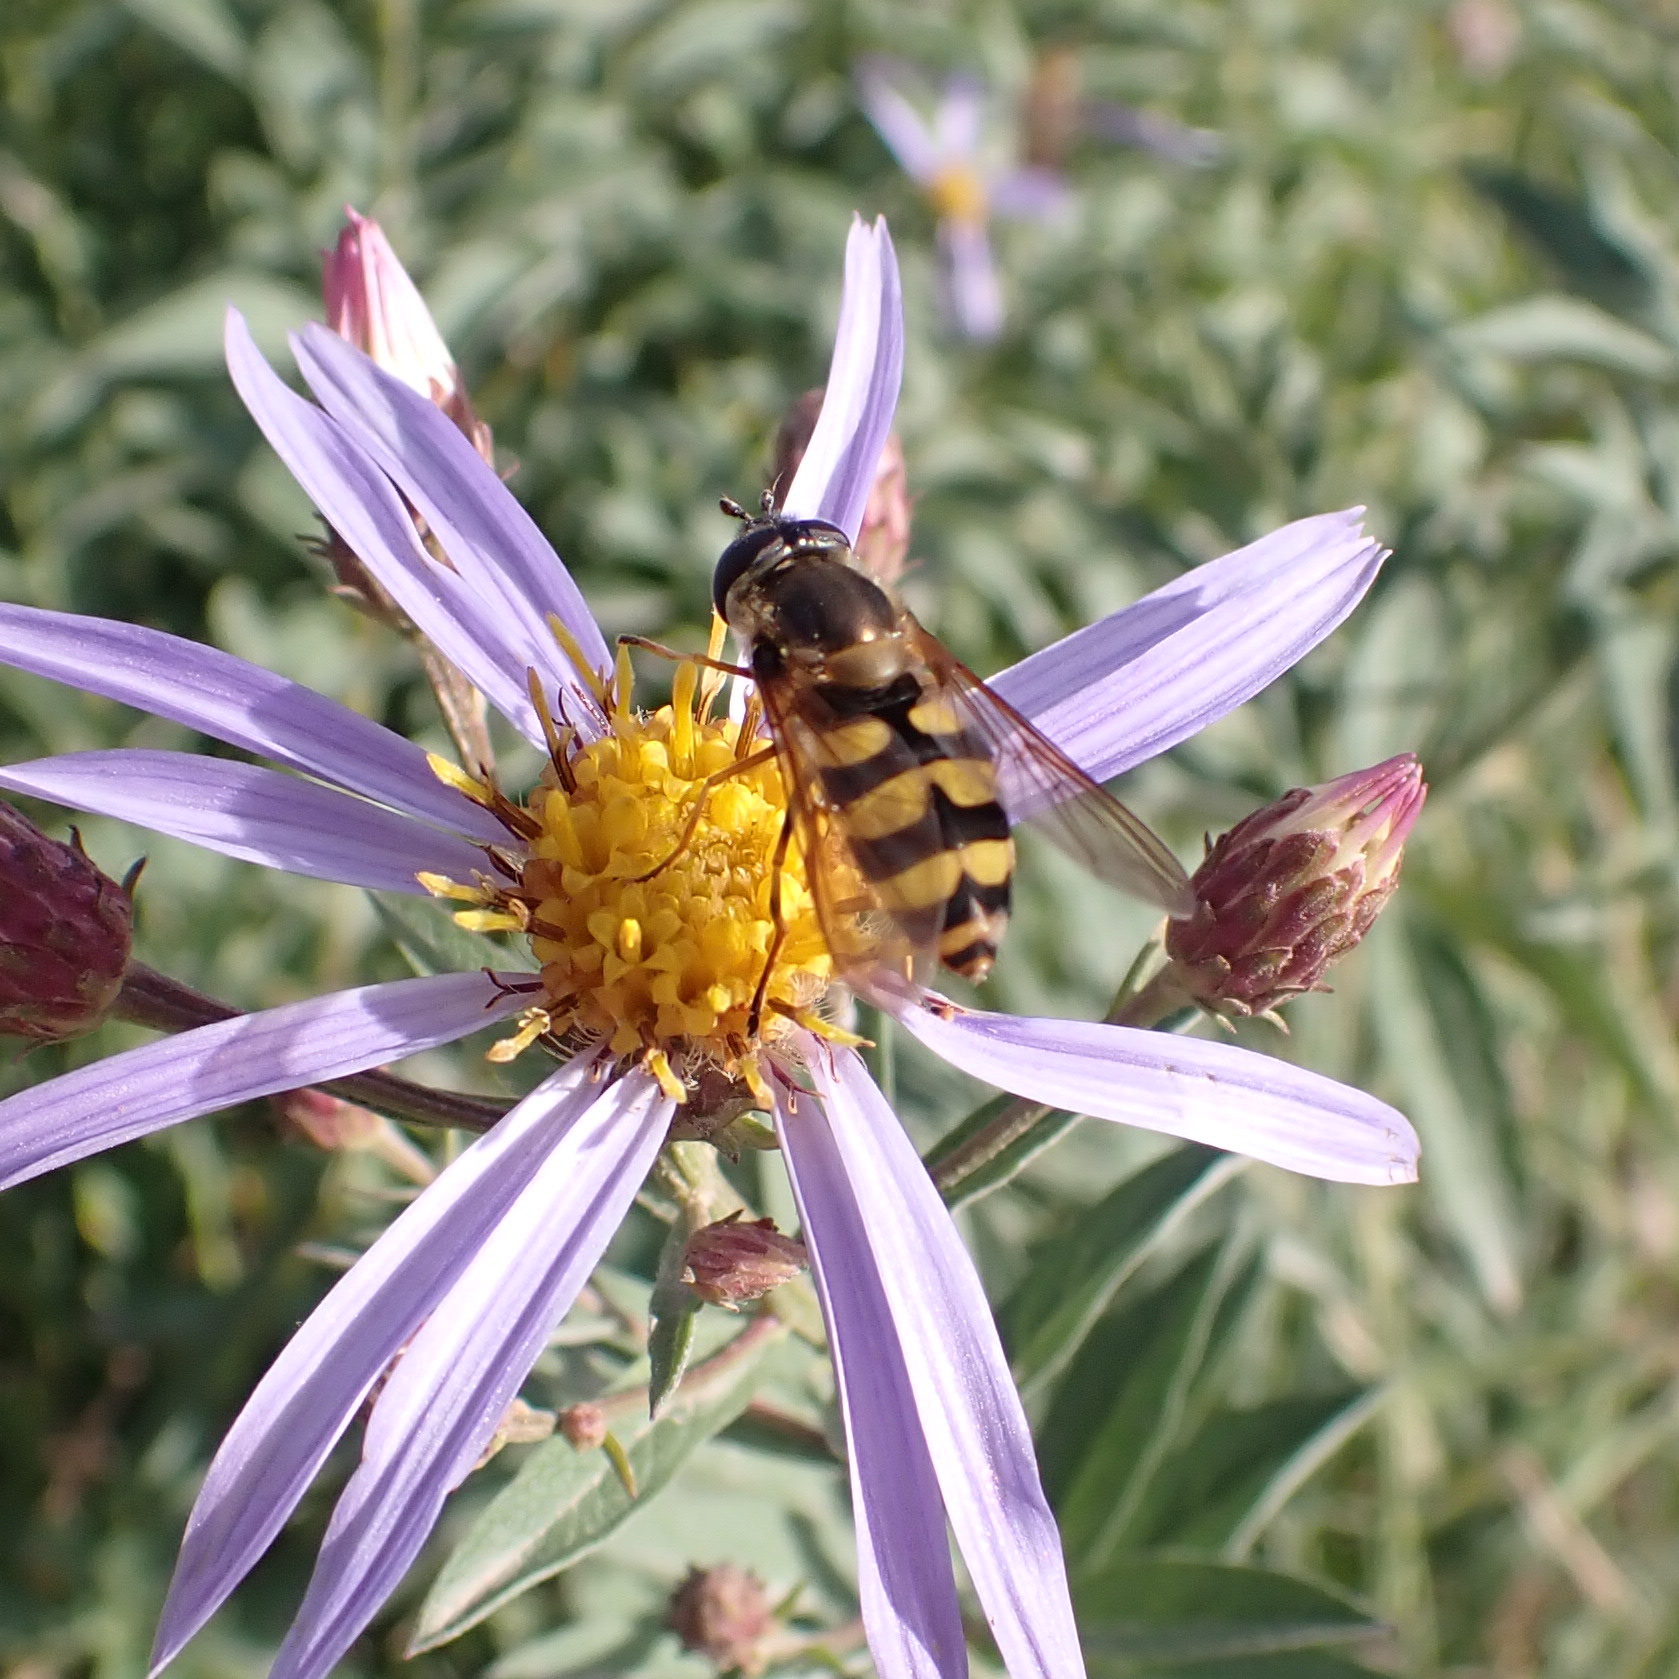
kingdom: Animalia
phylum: Arthropoda
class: Insecta
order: Diptera
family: Syrphidae
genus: Megasyrphus
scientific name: Megasyrphus laxus
